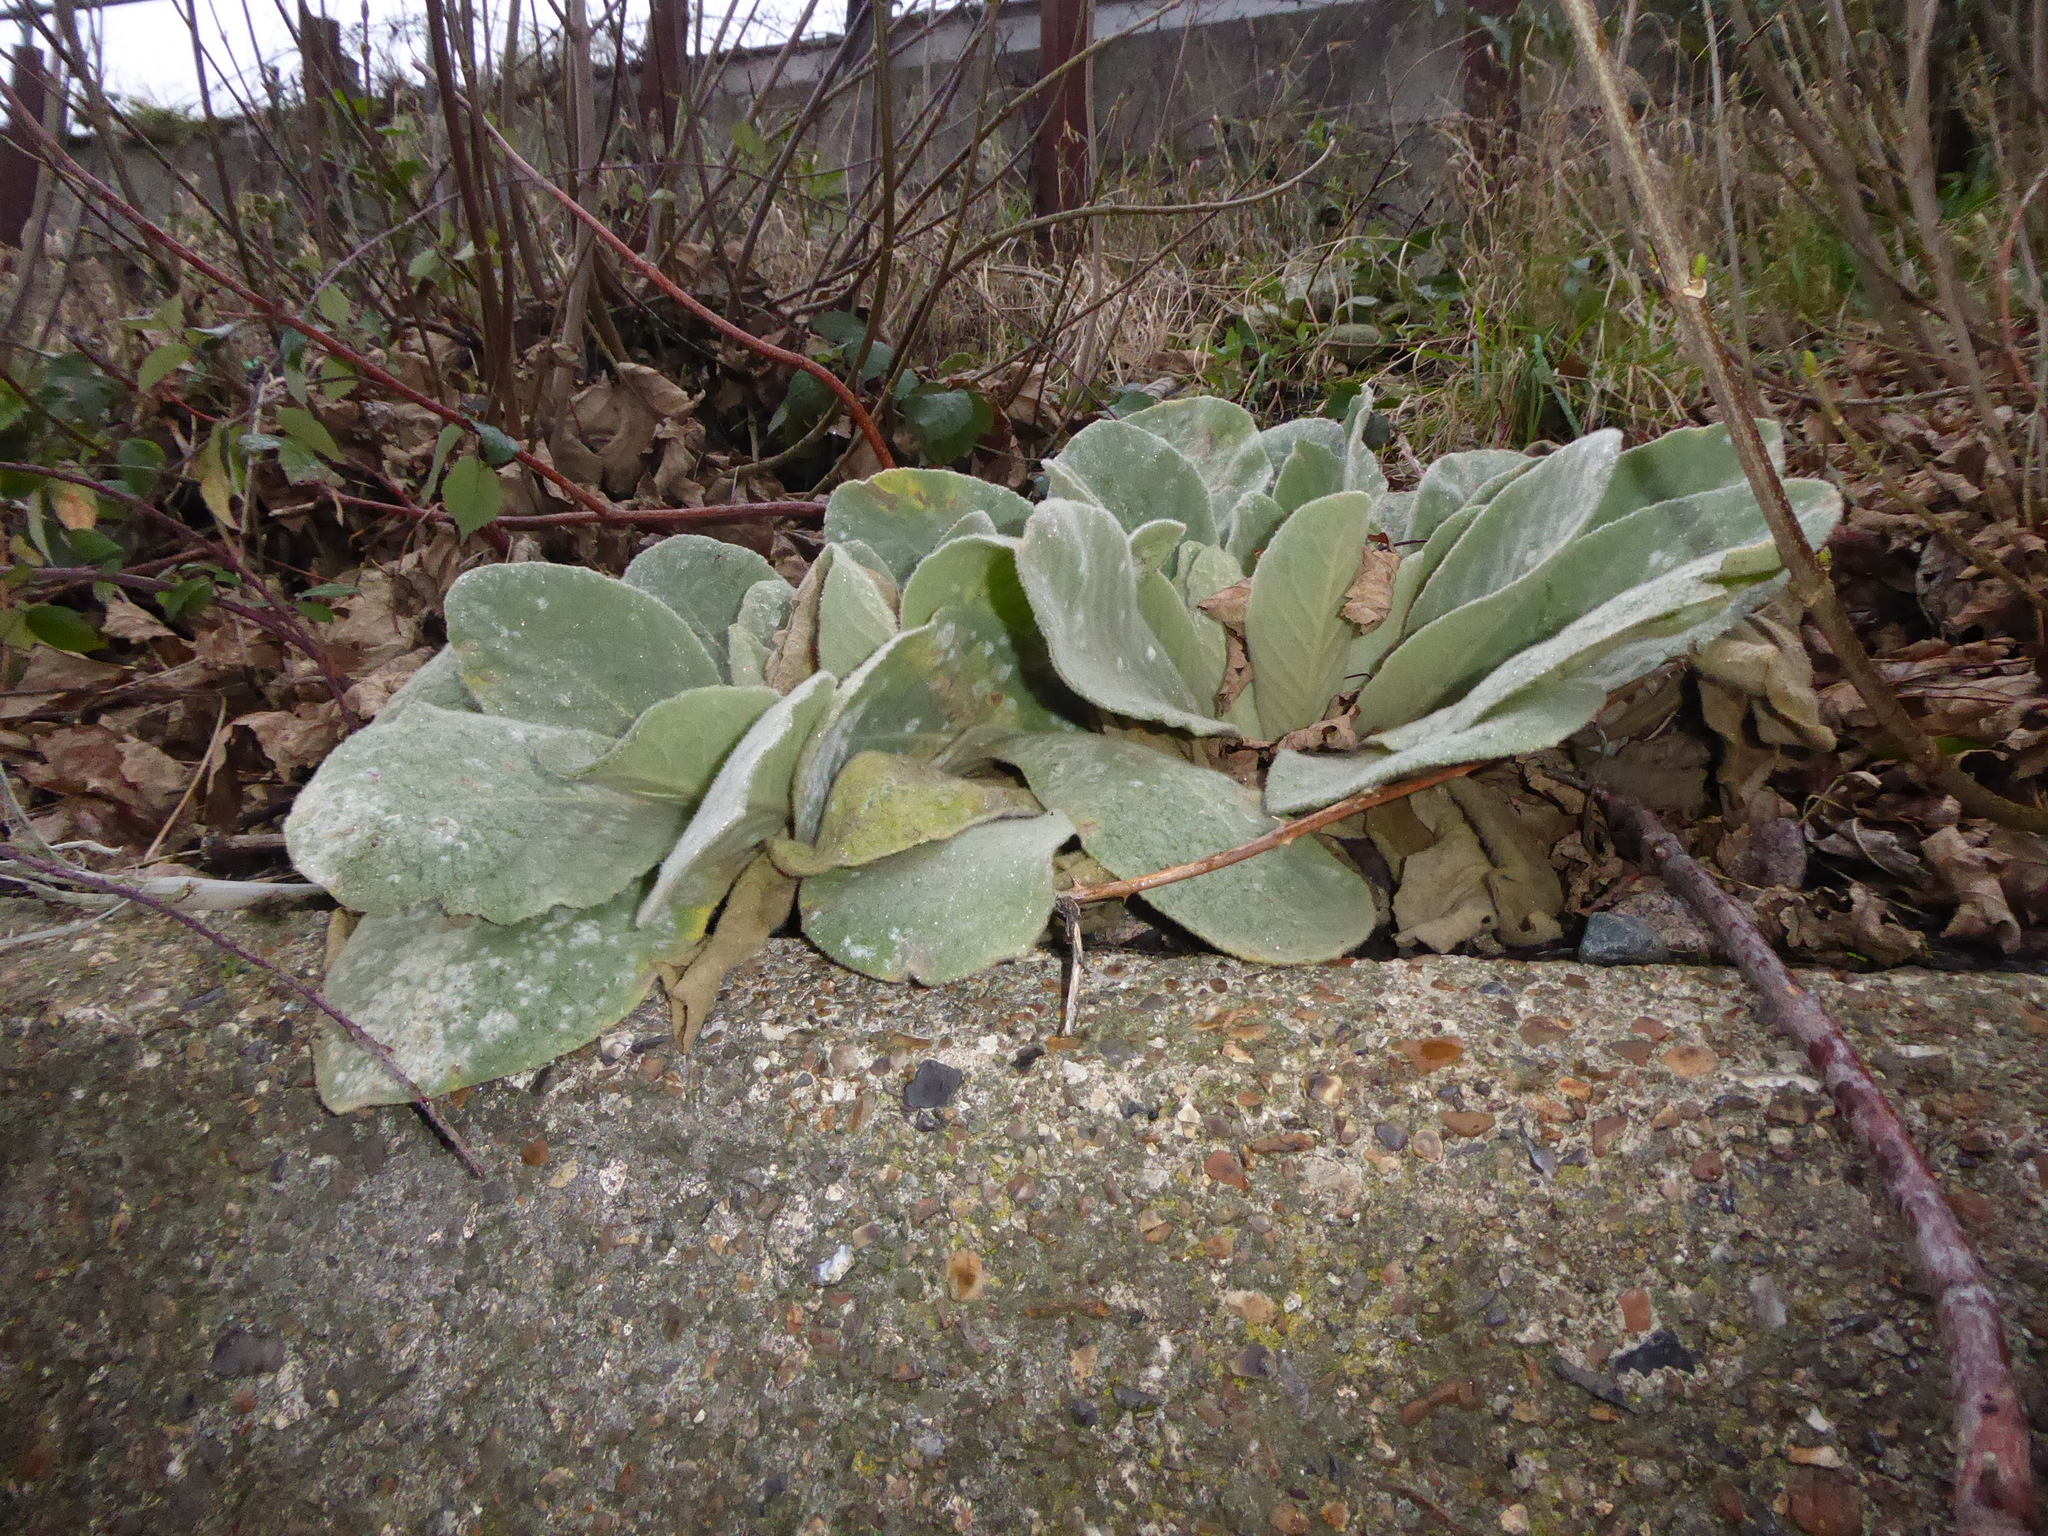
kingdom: Fungi
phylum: Ascomycota
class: Leotiomycetes
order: Helotiales
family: Erysiphaceae
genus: Golovinomyces
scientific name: Golovinomyces verbasci
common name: Powdery mildew
